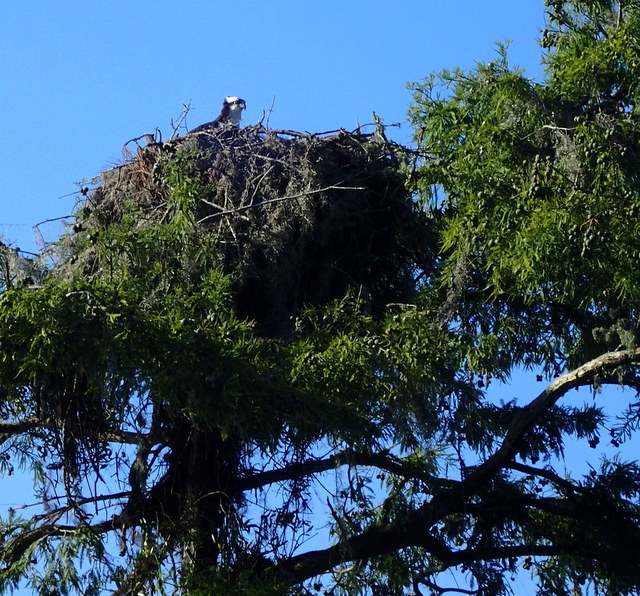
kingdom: Animalia
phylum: Chordata
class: Aves
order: Accipitriformes
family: Pandionidae
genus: Pandion
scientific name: Pandion haliaetus
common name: Osprey
